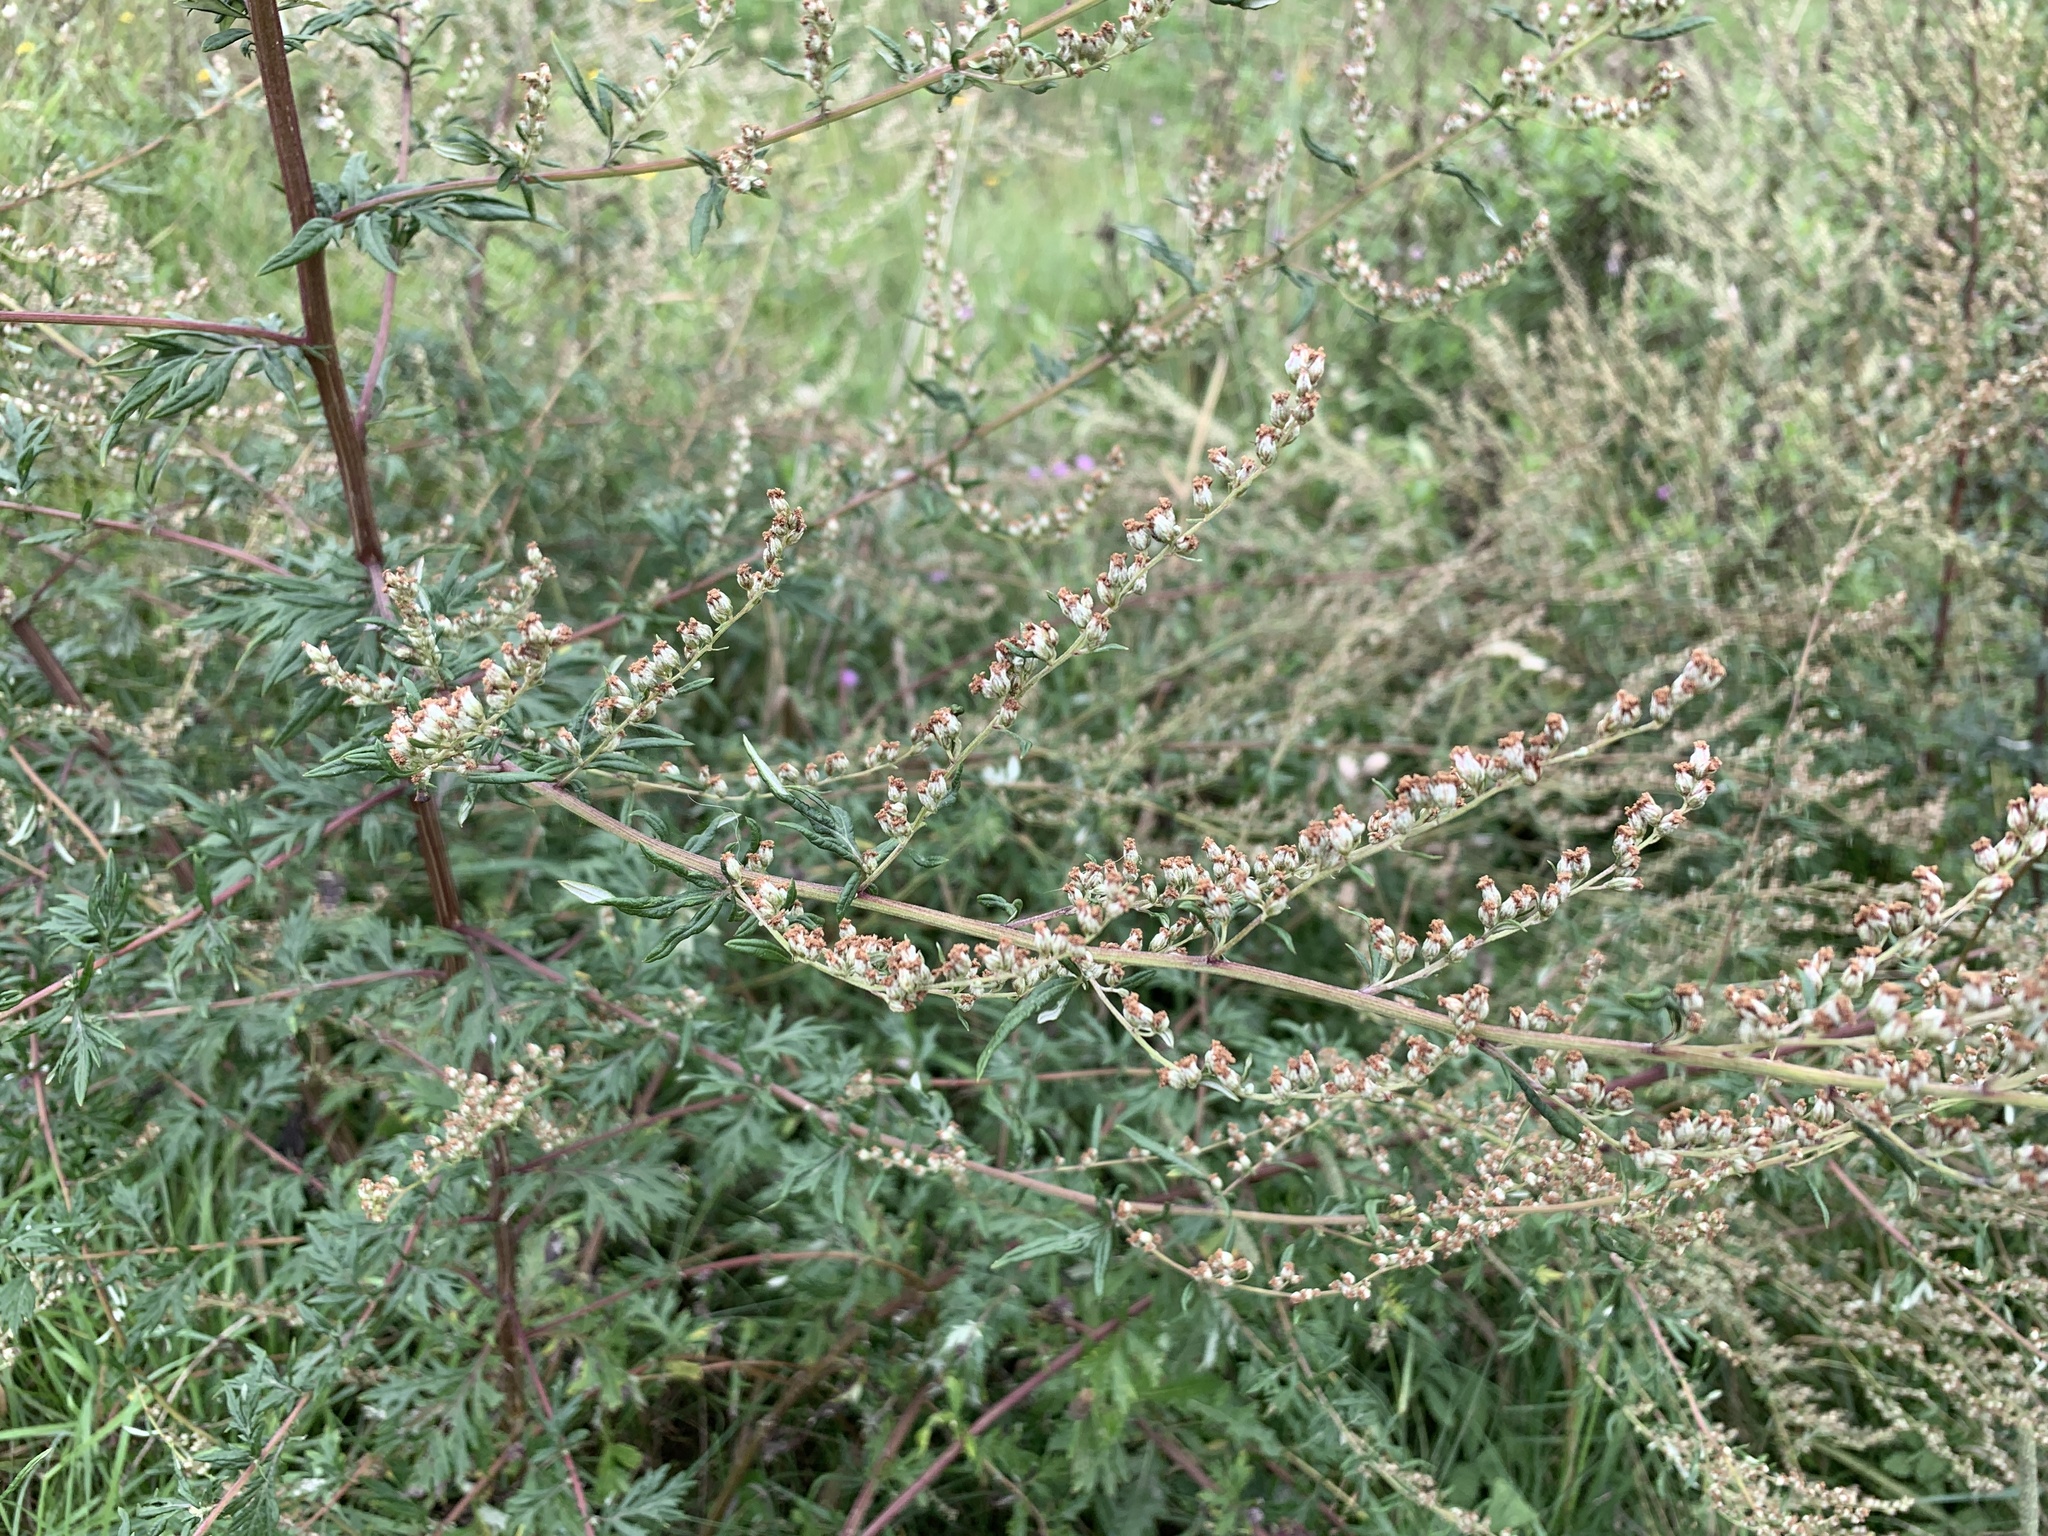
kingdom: Plantae
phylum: Tracheophyta
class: Magnoliopsida
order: Asterales
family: Asteraceae
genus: Artemisia
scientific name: Artemisia vulgaris
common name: Mugwort
